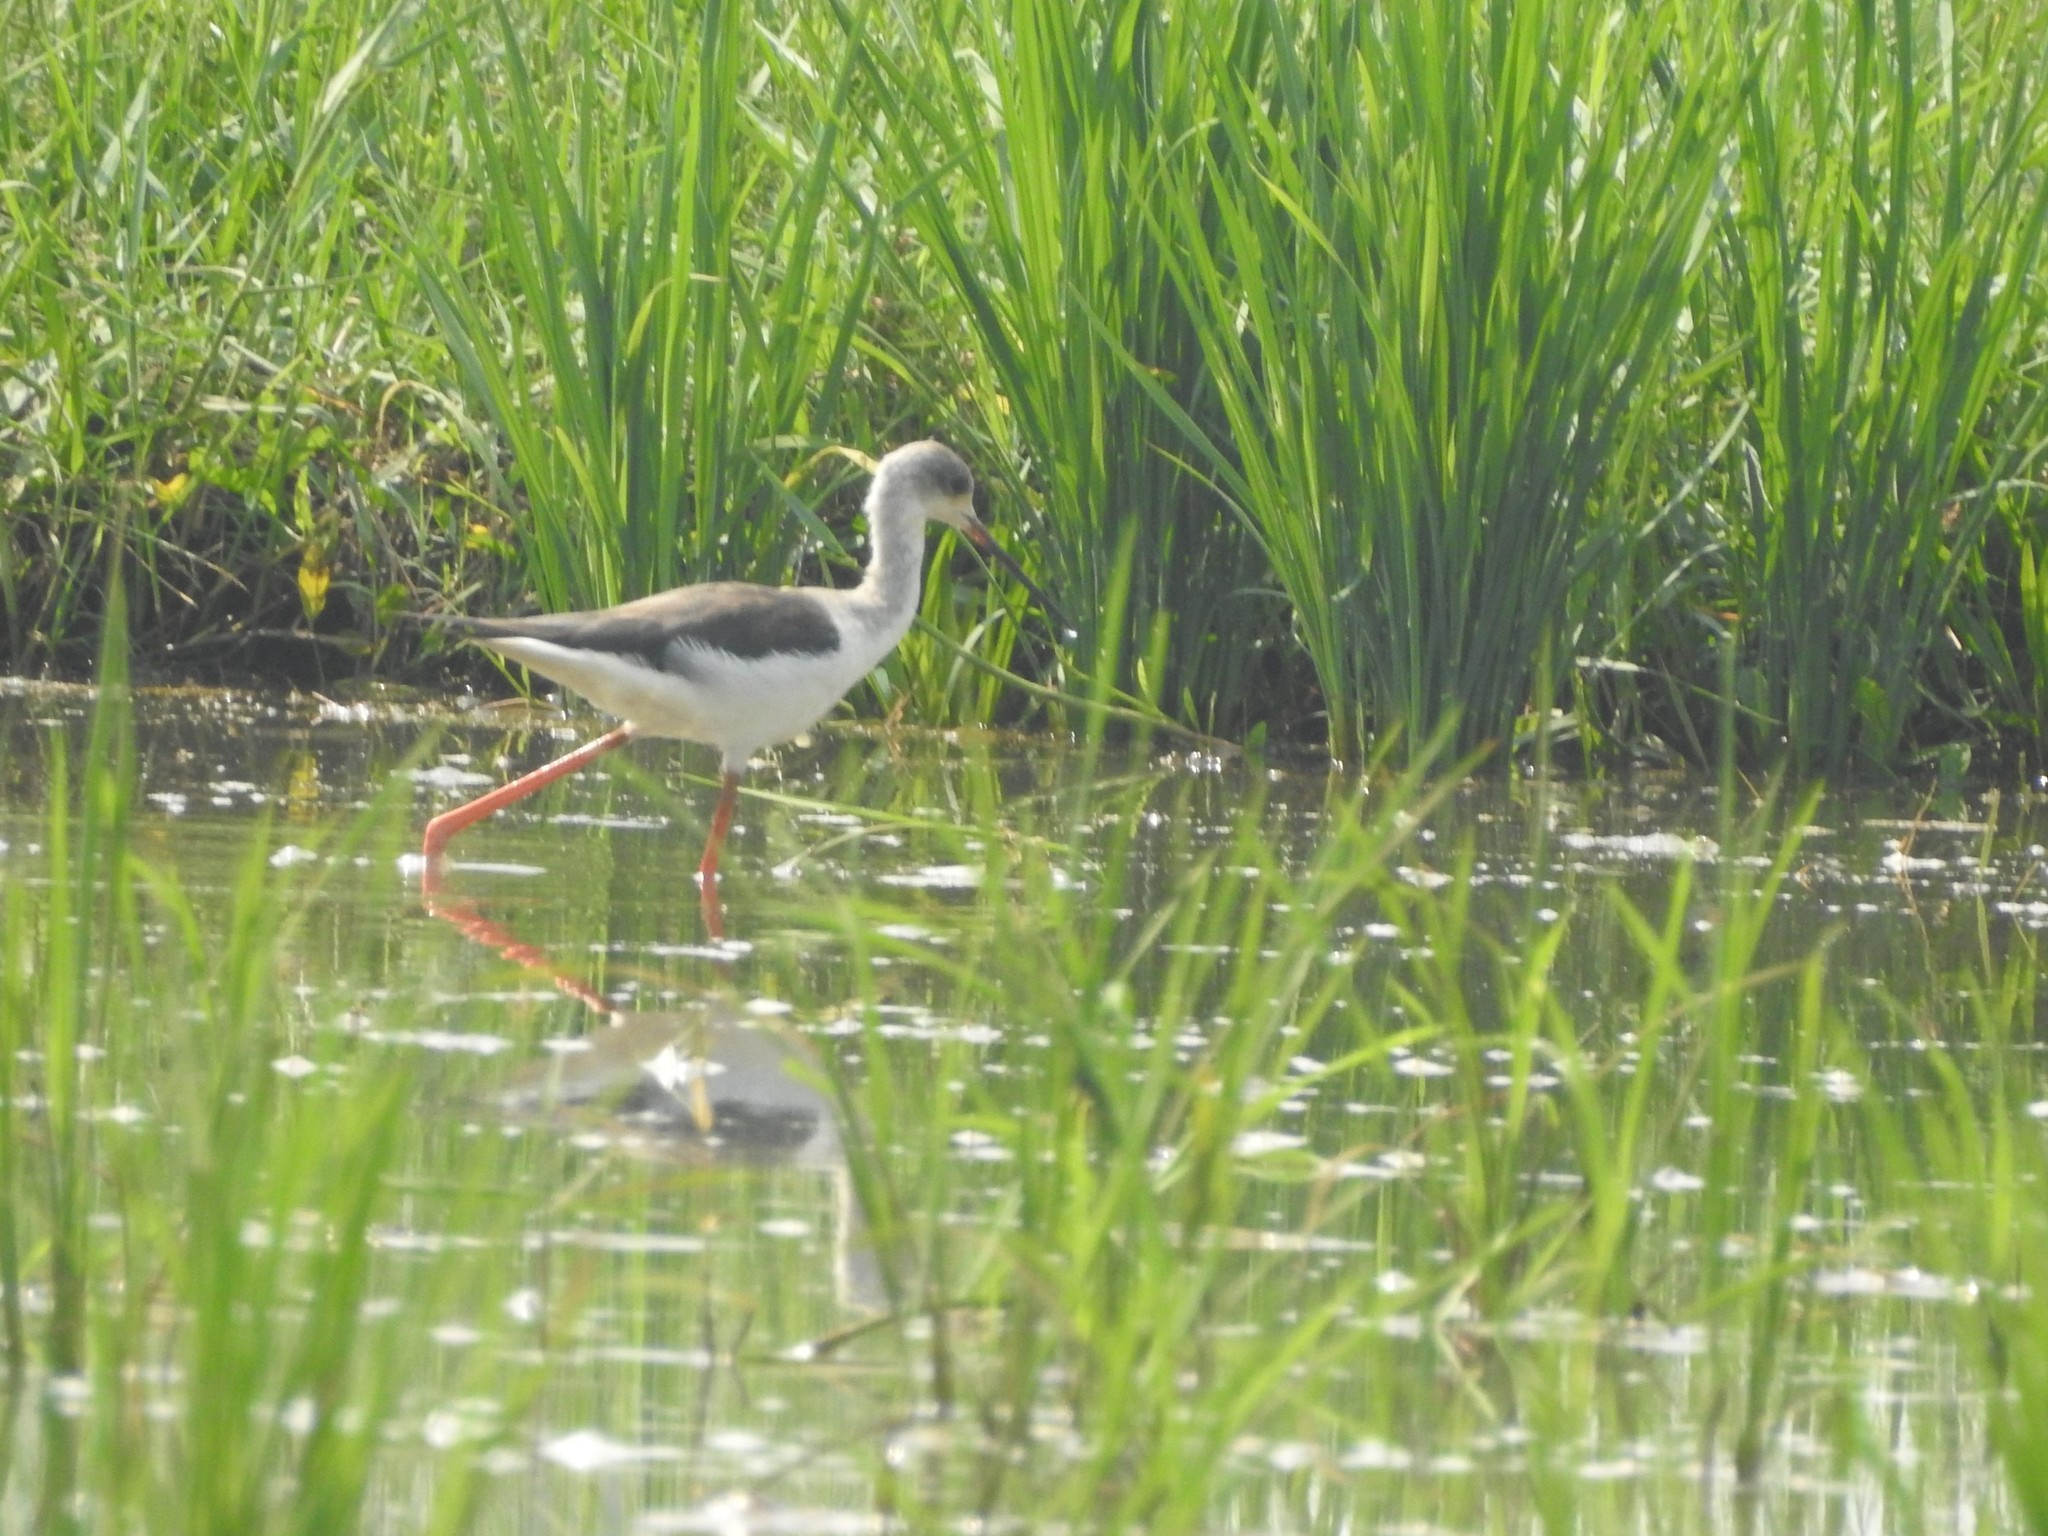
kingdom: Animalia
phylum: Chordata
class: Aves
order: Charadriiformes
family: Recurvirostridae
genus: Himantopus
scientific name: Himantopus himantopus
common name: Black-winged stilt
